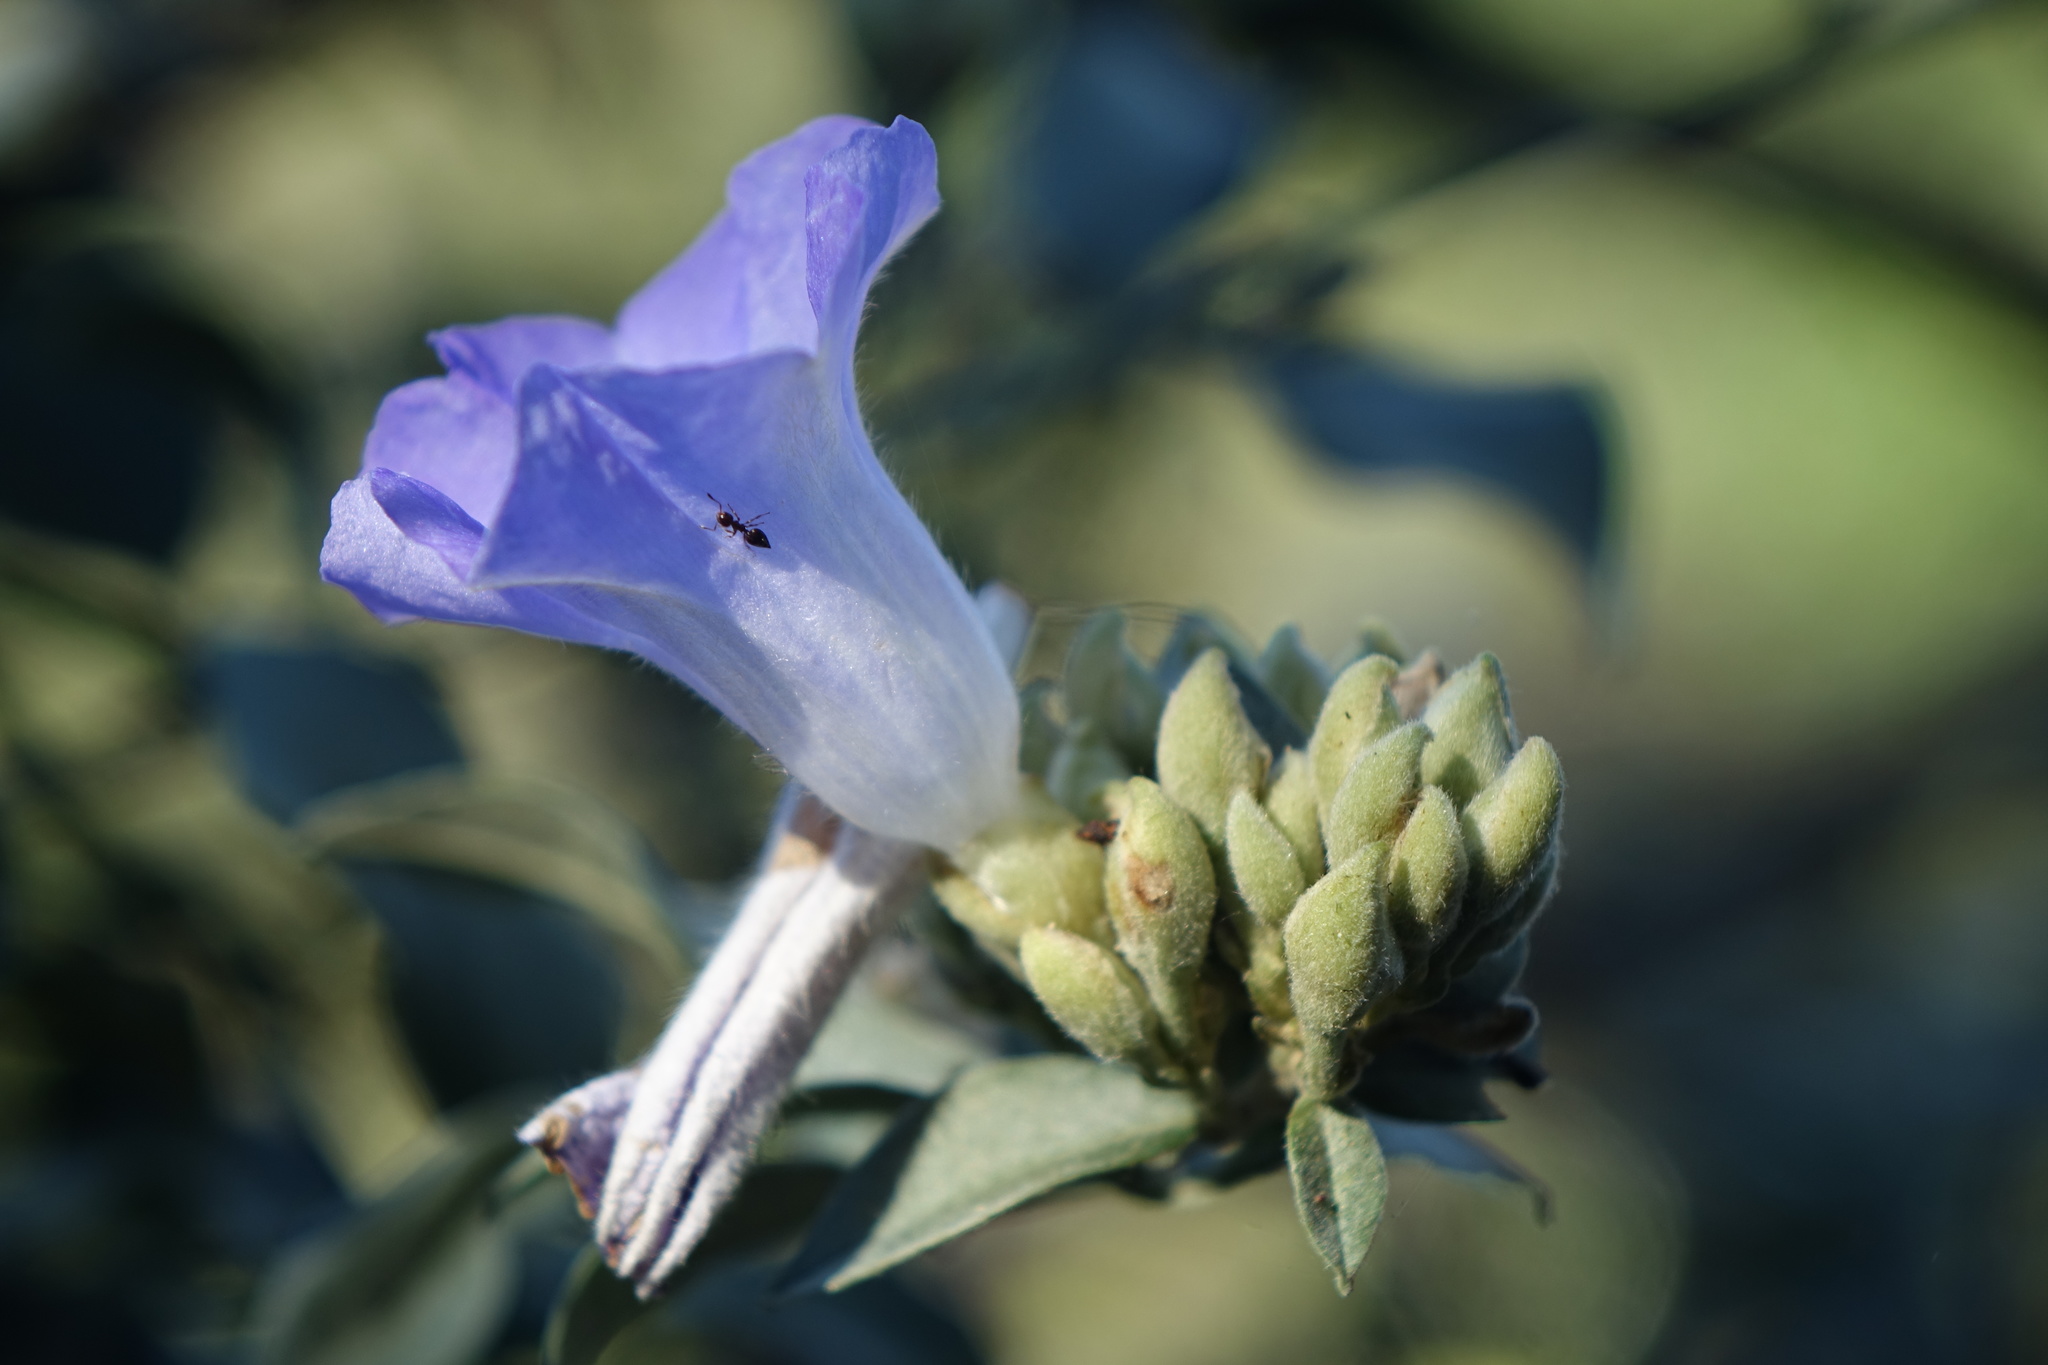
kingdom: Plantae
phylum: Tracheophyta
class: Magnoliopsida
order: Solanales
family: Convolvulaceae
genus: Bonamia
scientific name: Bonamia spectabilis
